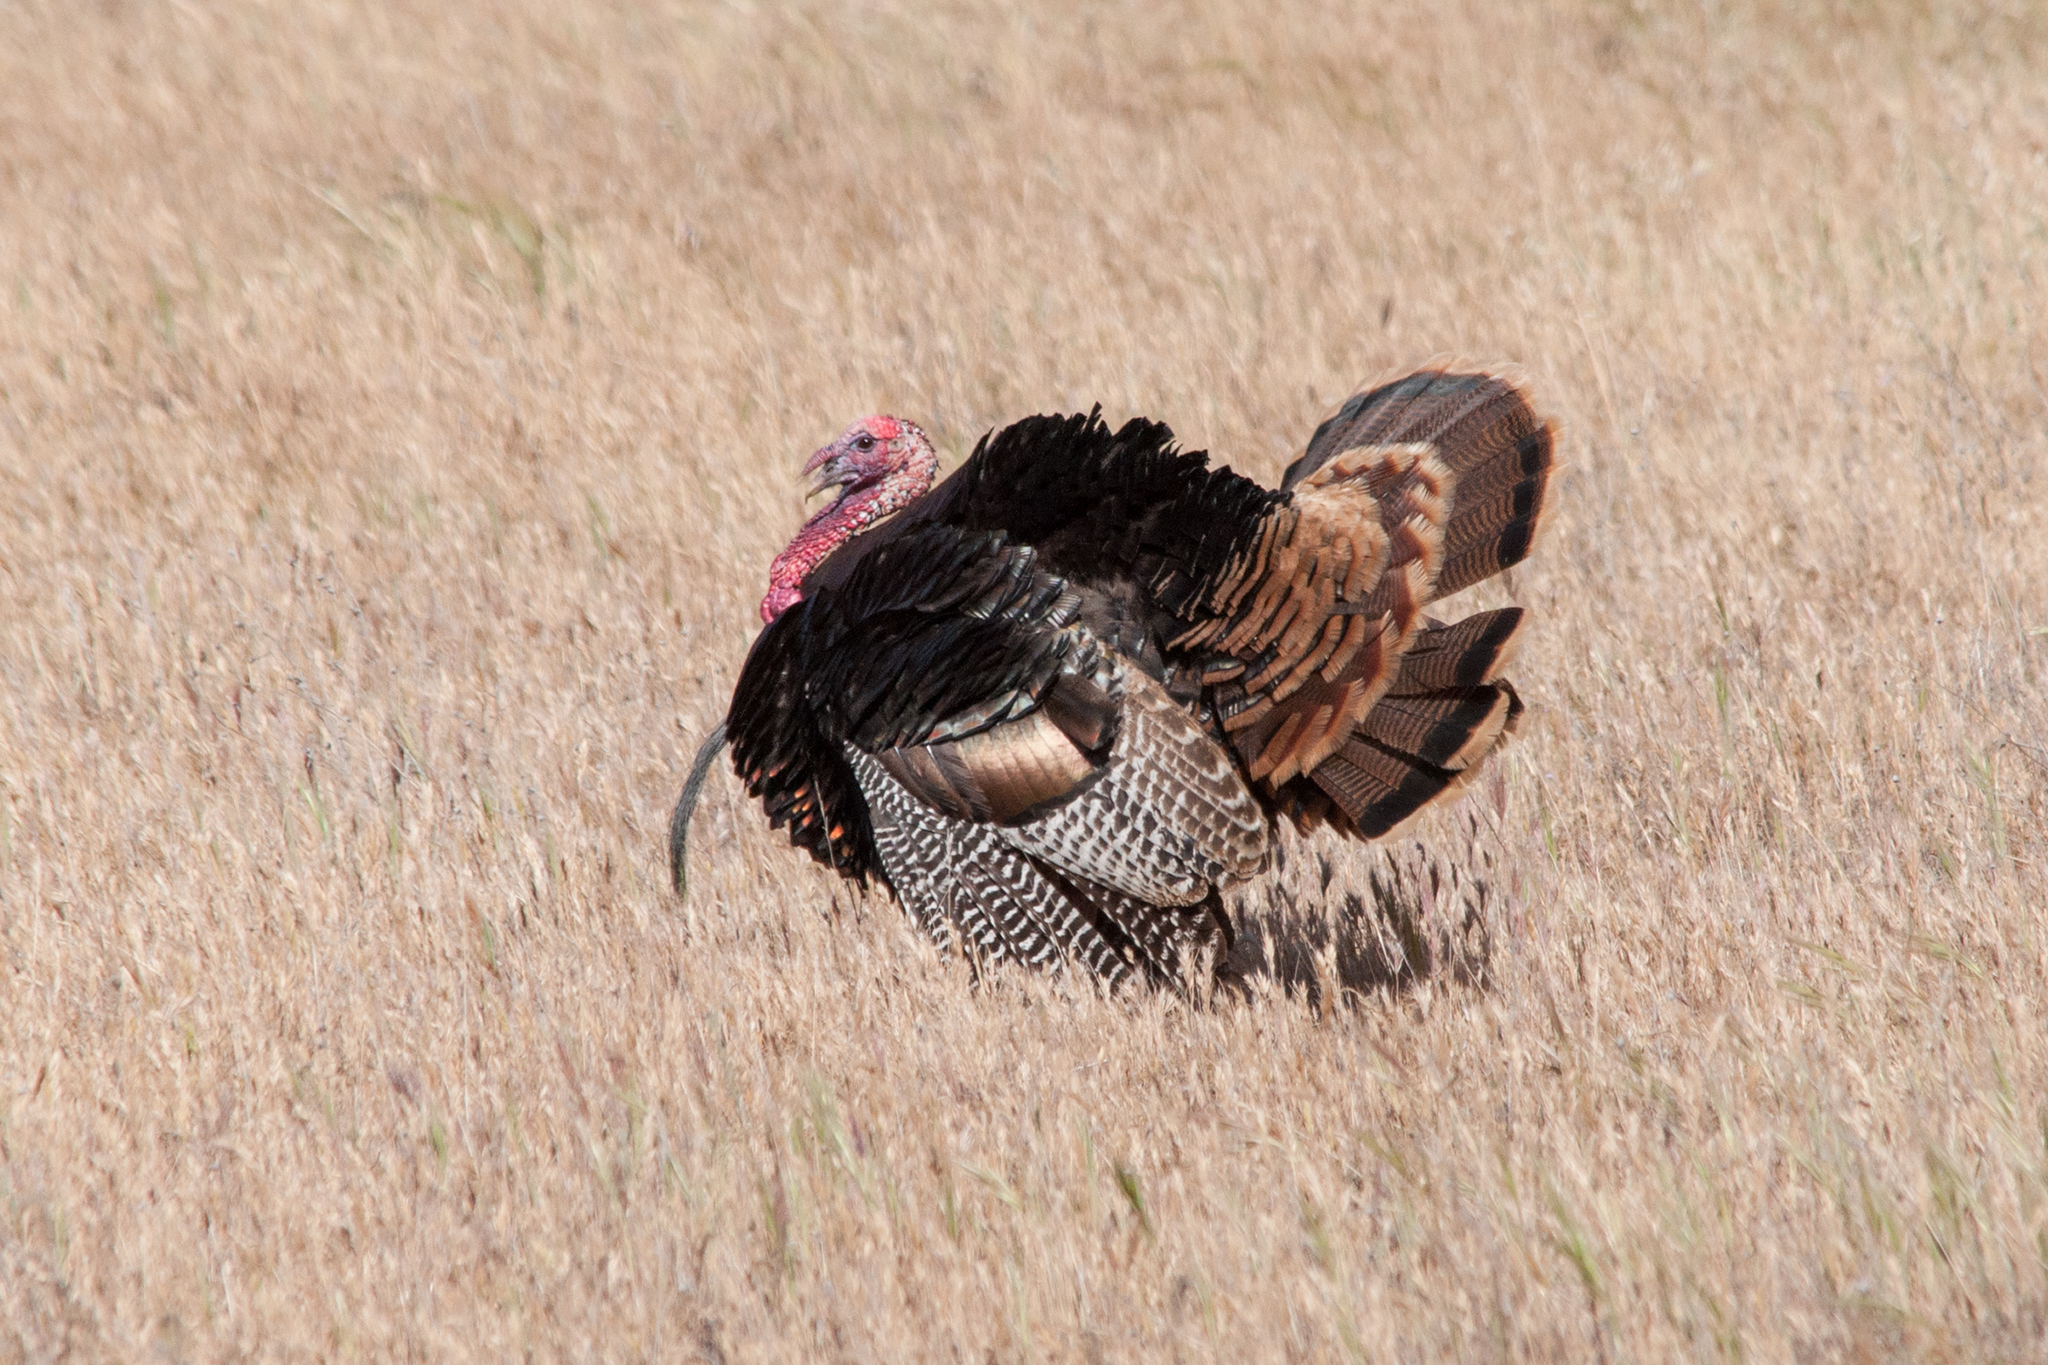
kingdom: Animalia
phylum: Chordata
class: Aves
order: Galliformes
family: Phasianidae
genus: Meleagris
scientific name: Meleagris gallopavo
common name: Wild turkey
